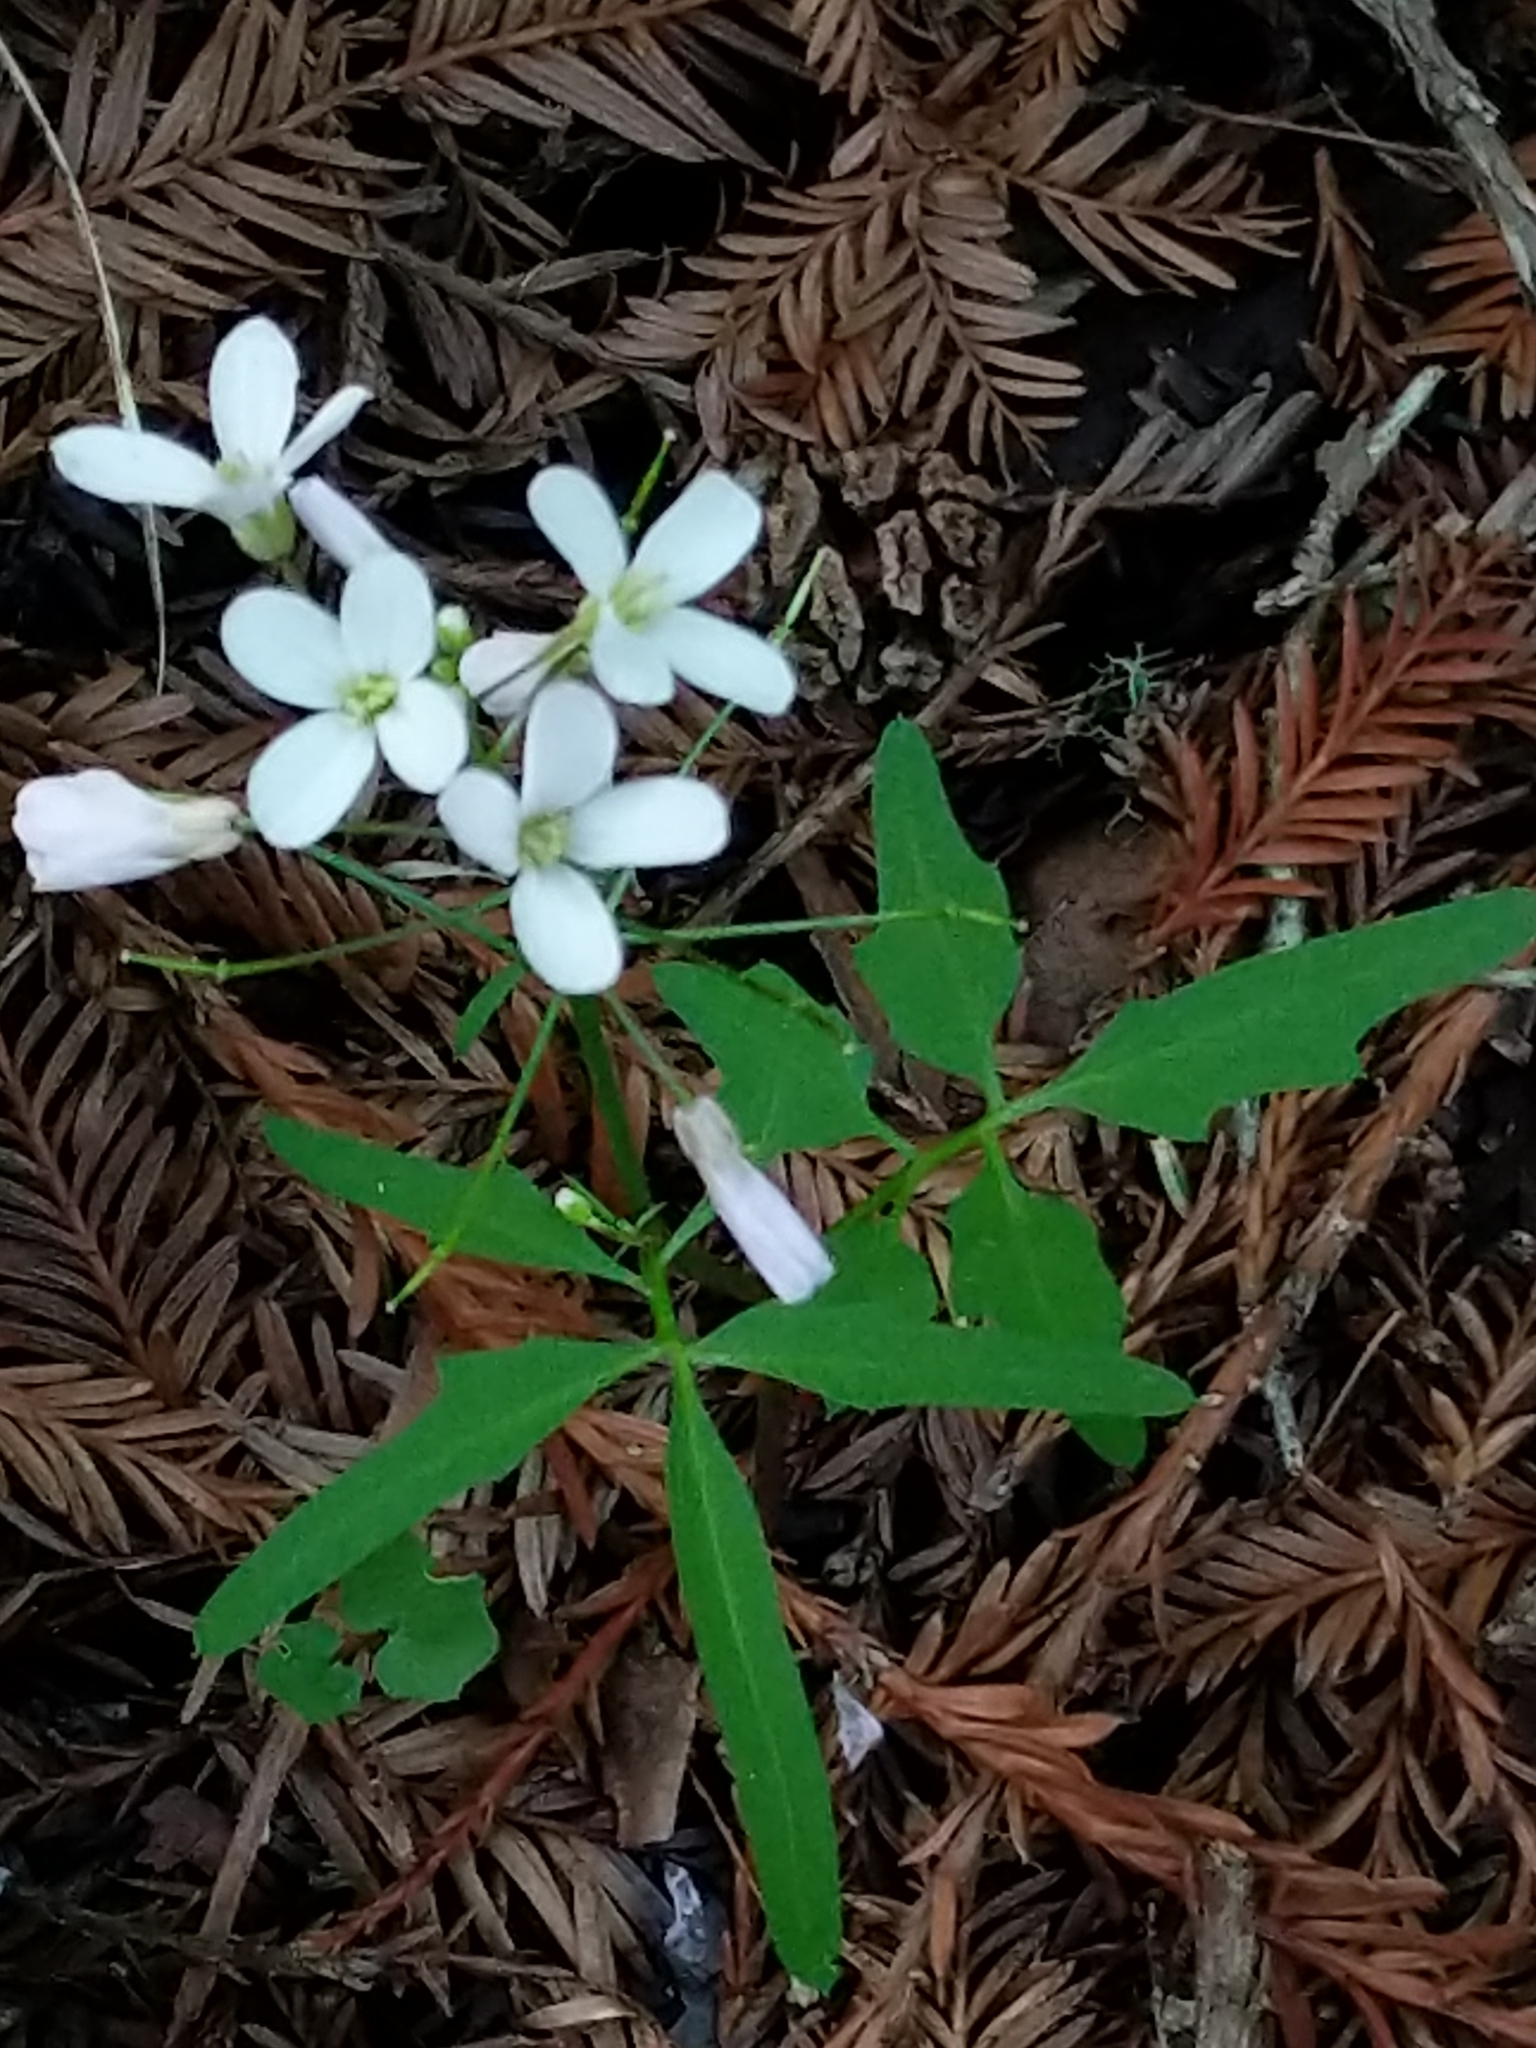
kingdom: Plantae
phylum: Tracheophyta
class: Magnoliopsida
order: Brassicales
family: Brassicaceae
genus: Cardamine
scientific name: Cardamine californica
